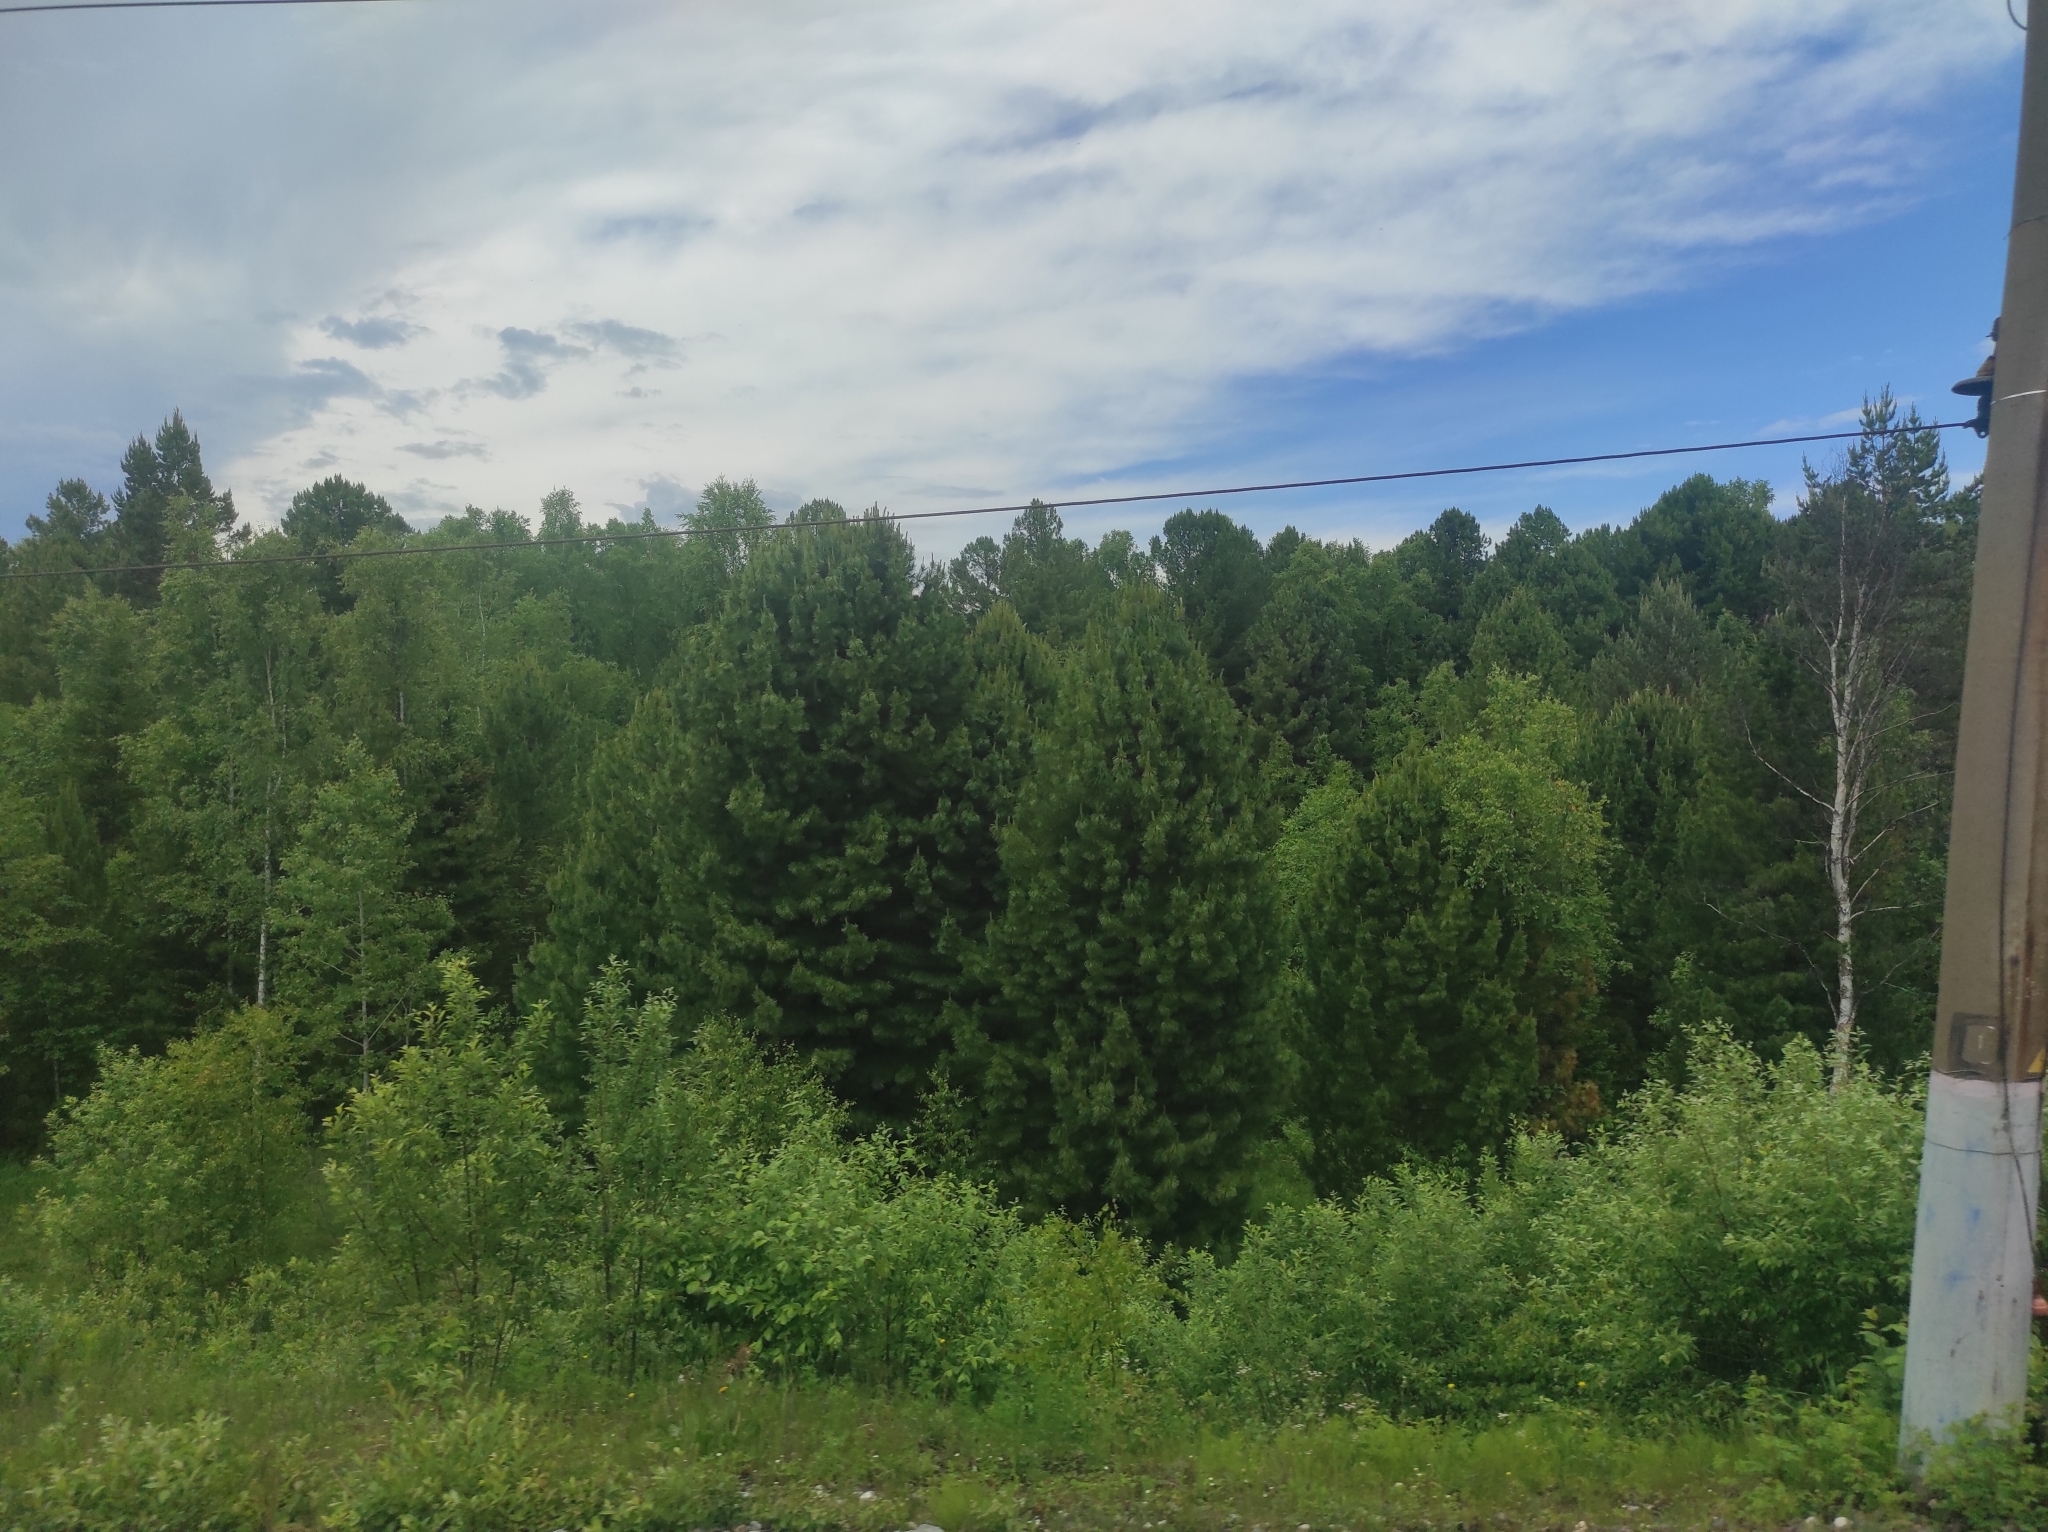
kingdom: Plantae
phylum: Tracheophyta
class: Pinopsida
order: Pinales
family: Pinaceae
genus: Pinus
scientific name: Pinus sibirica
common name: Siberian pine
